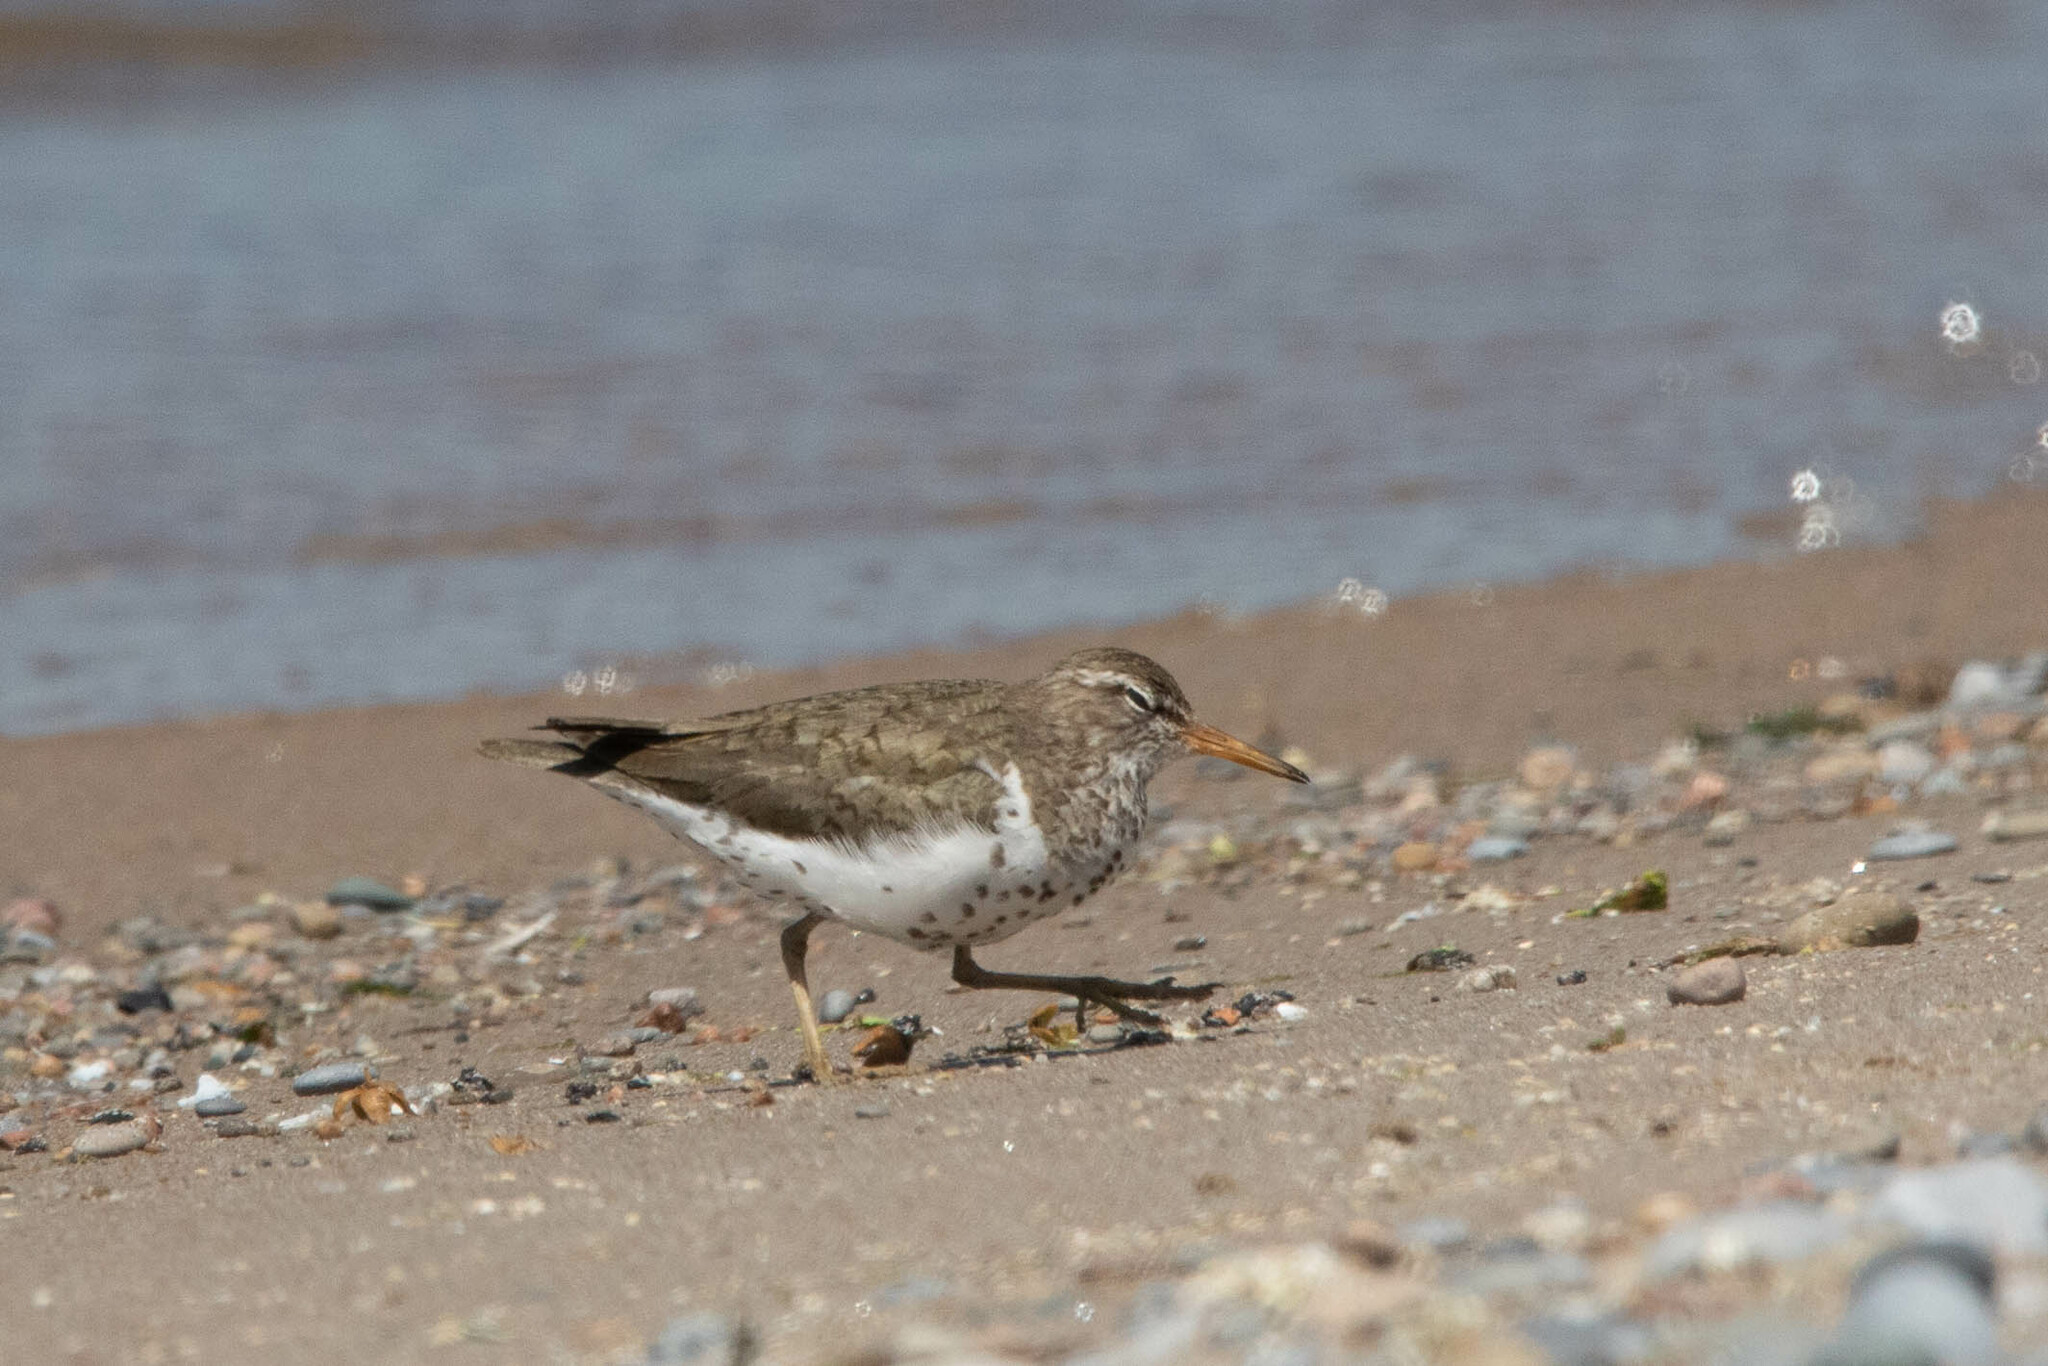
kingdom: Animalia
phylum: Chordata
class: Aves
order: Charadriiformes
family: Scolopacidae
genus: Actitis
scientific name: Actitis macularius
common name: Spotted sandpiper
